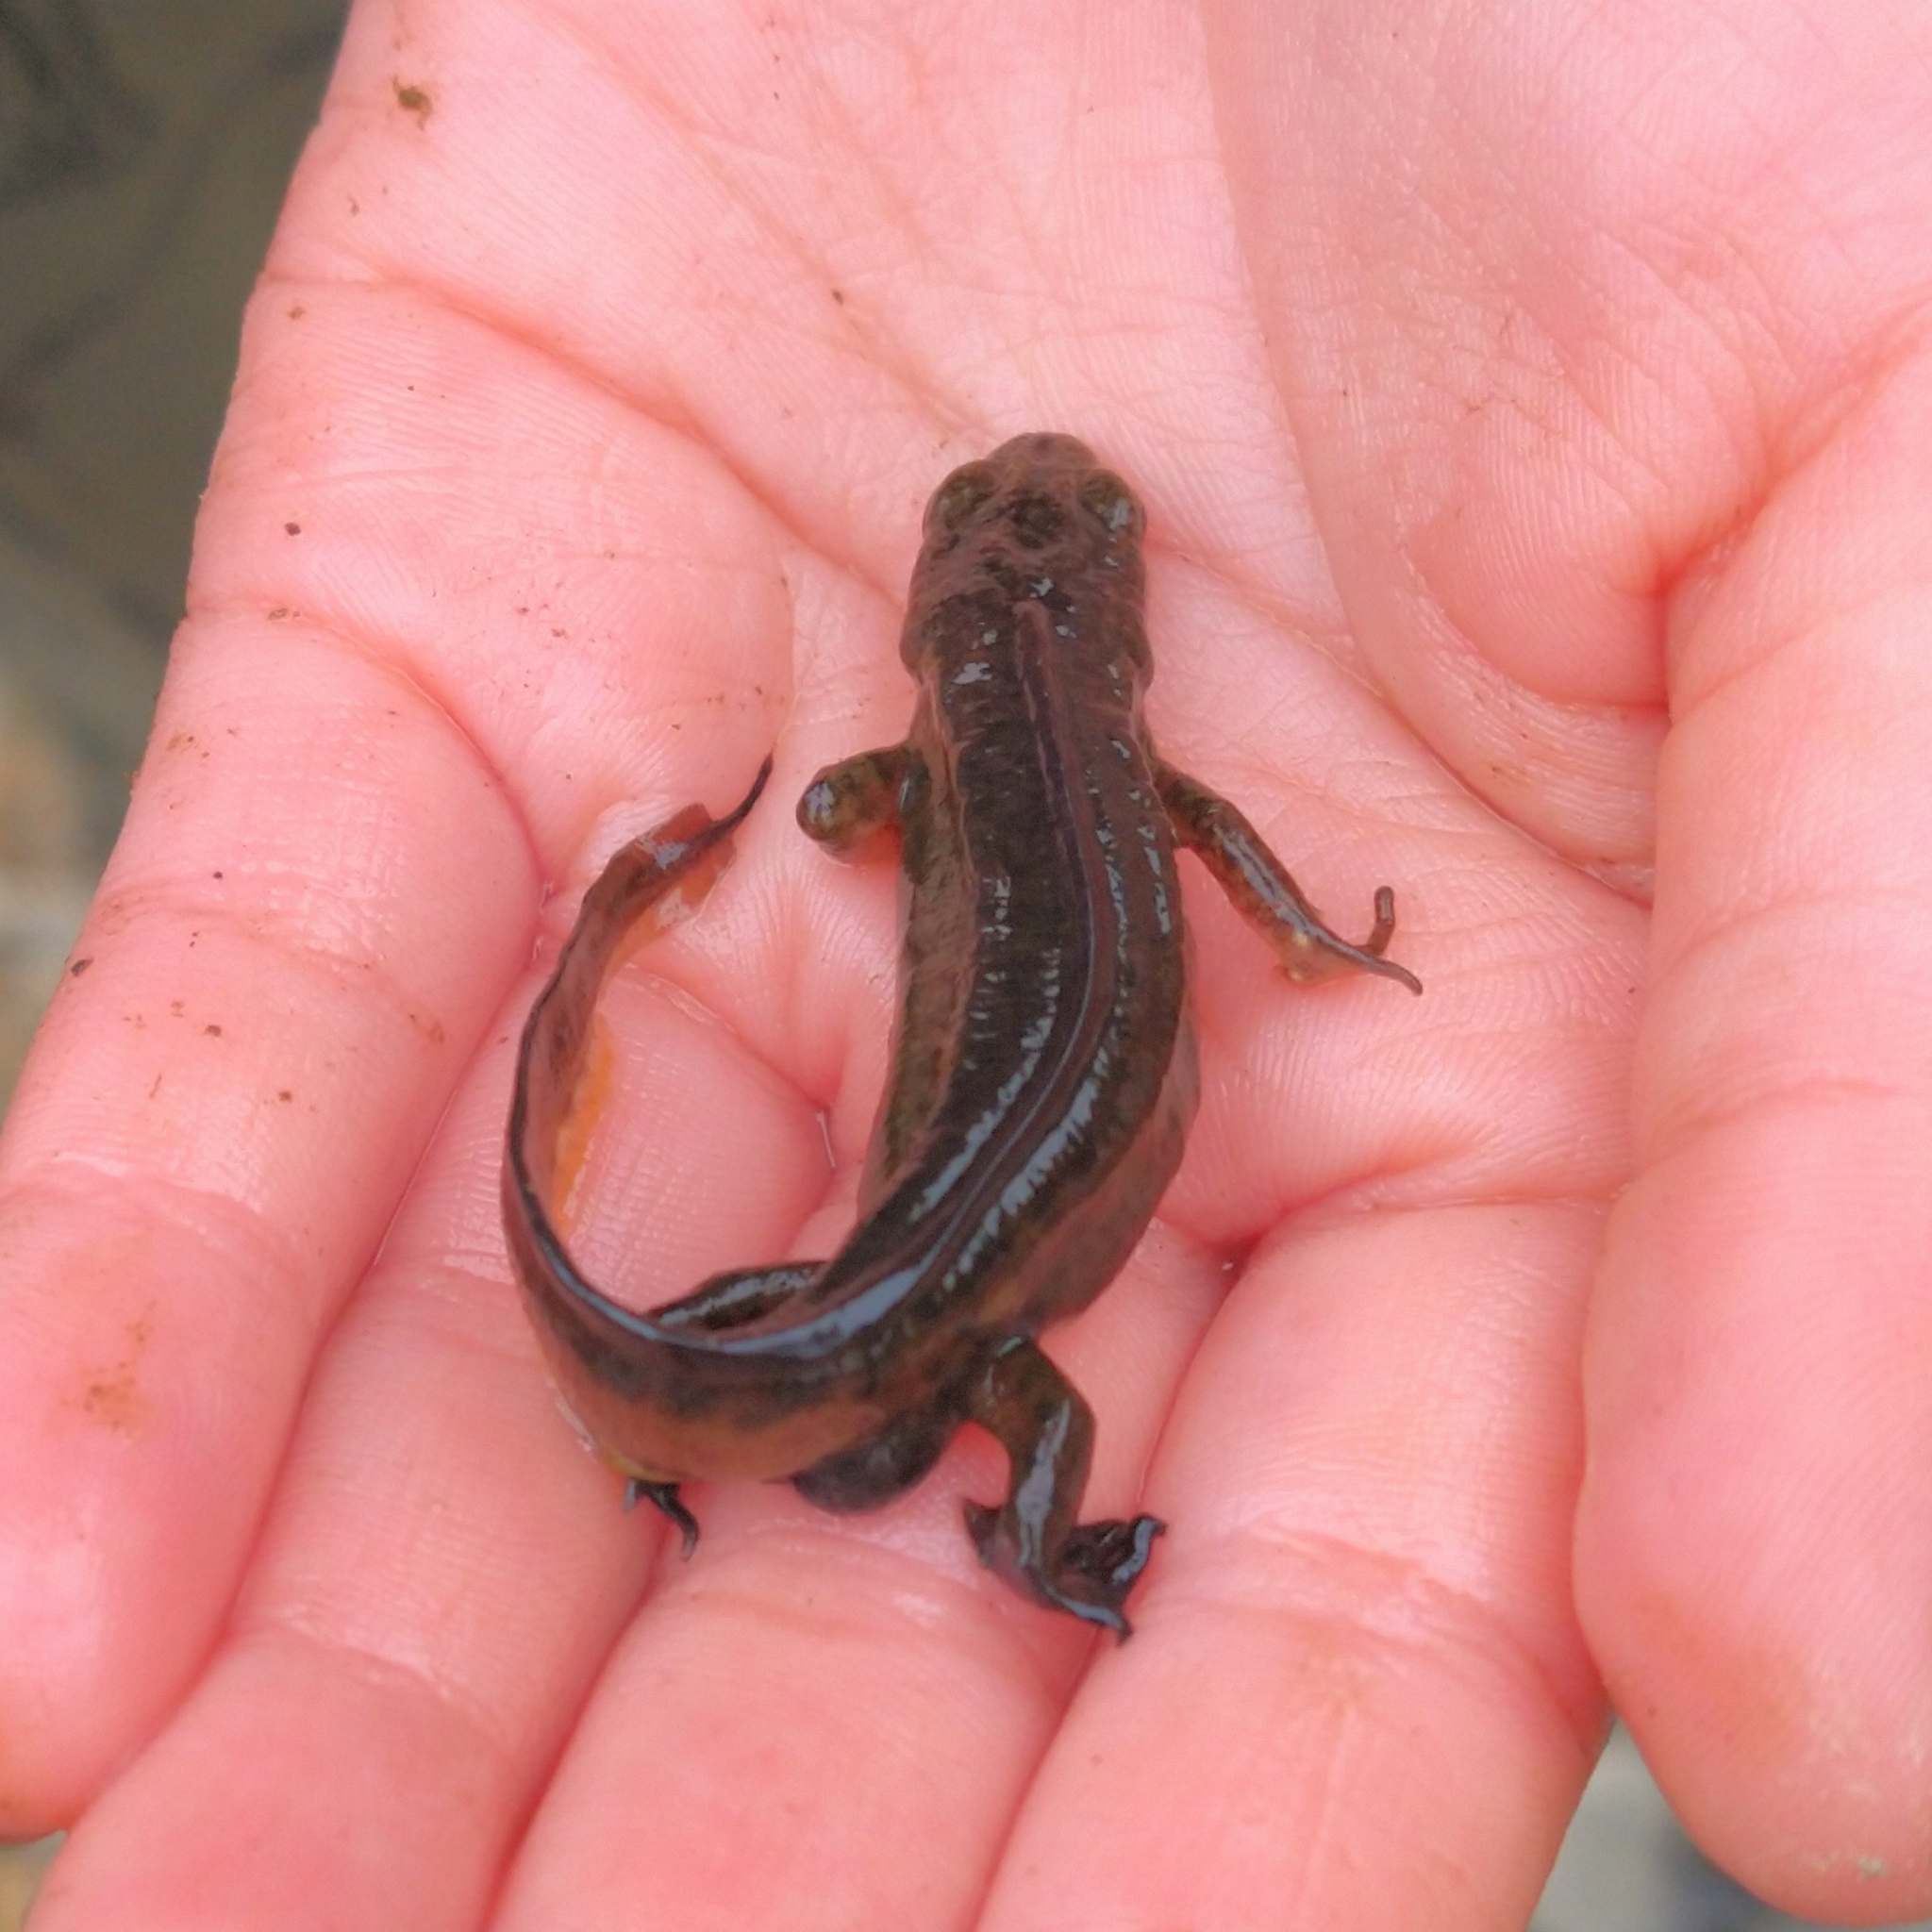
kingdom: Animalia
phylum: Chordata
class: Amphibia
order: Caudata
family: Salamandridae
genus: Lissotriton
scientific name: Lissotriton helveticus
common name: Palmate newt
